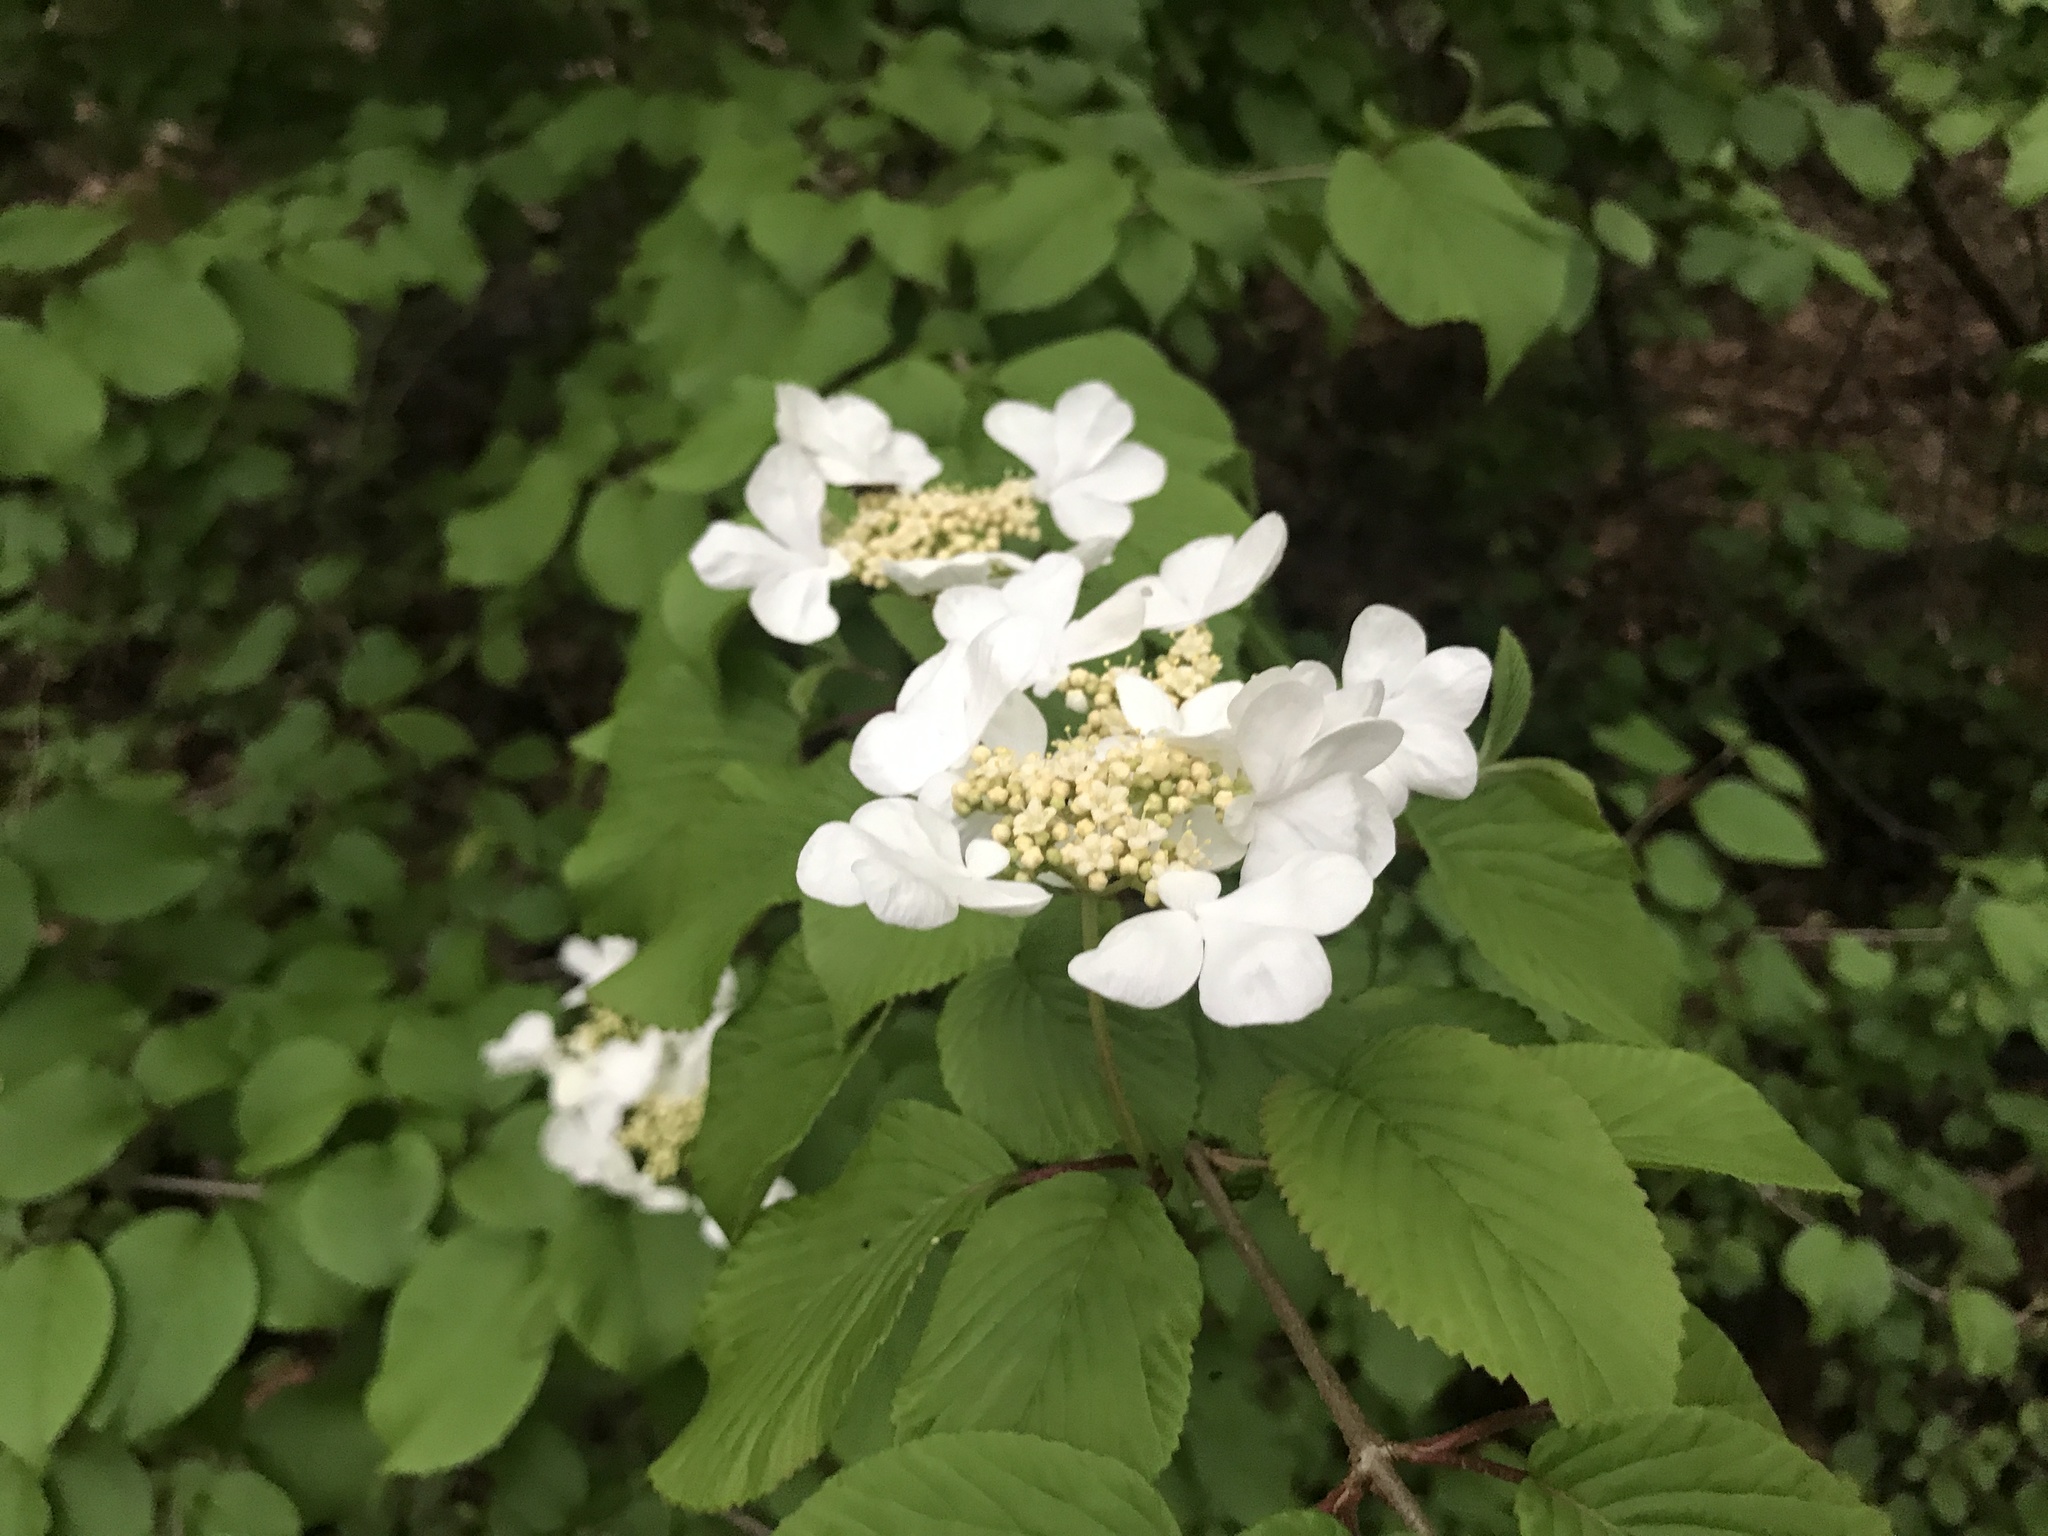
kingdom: Plantae
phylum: Tracheophyta
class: Magnoliopsida
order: Dipsacales
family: Viburnaceae
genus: Viburnum
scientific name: Viburnum plicatum
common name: Japanese snowball
